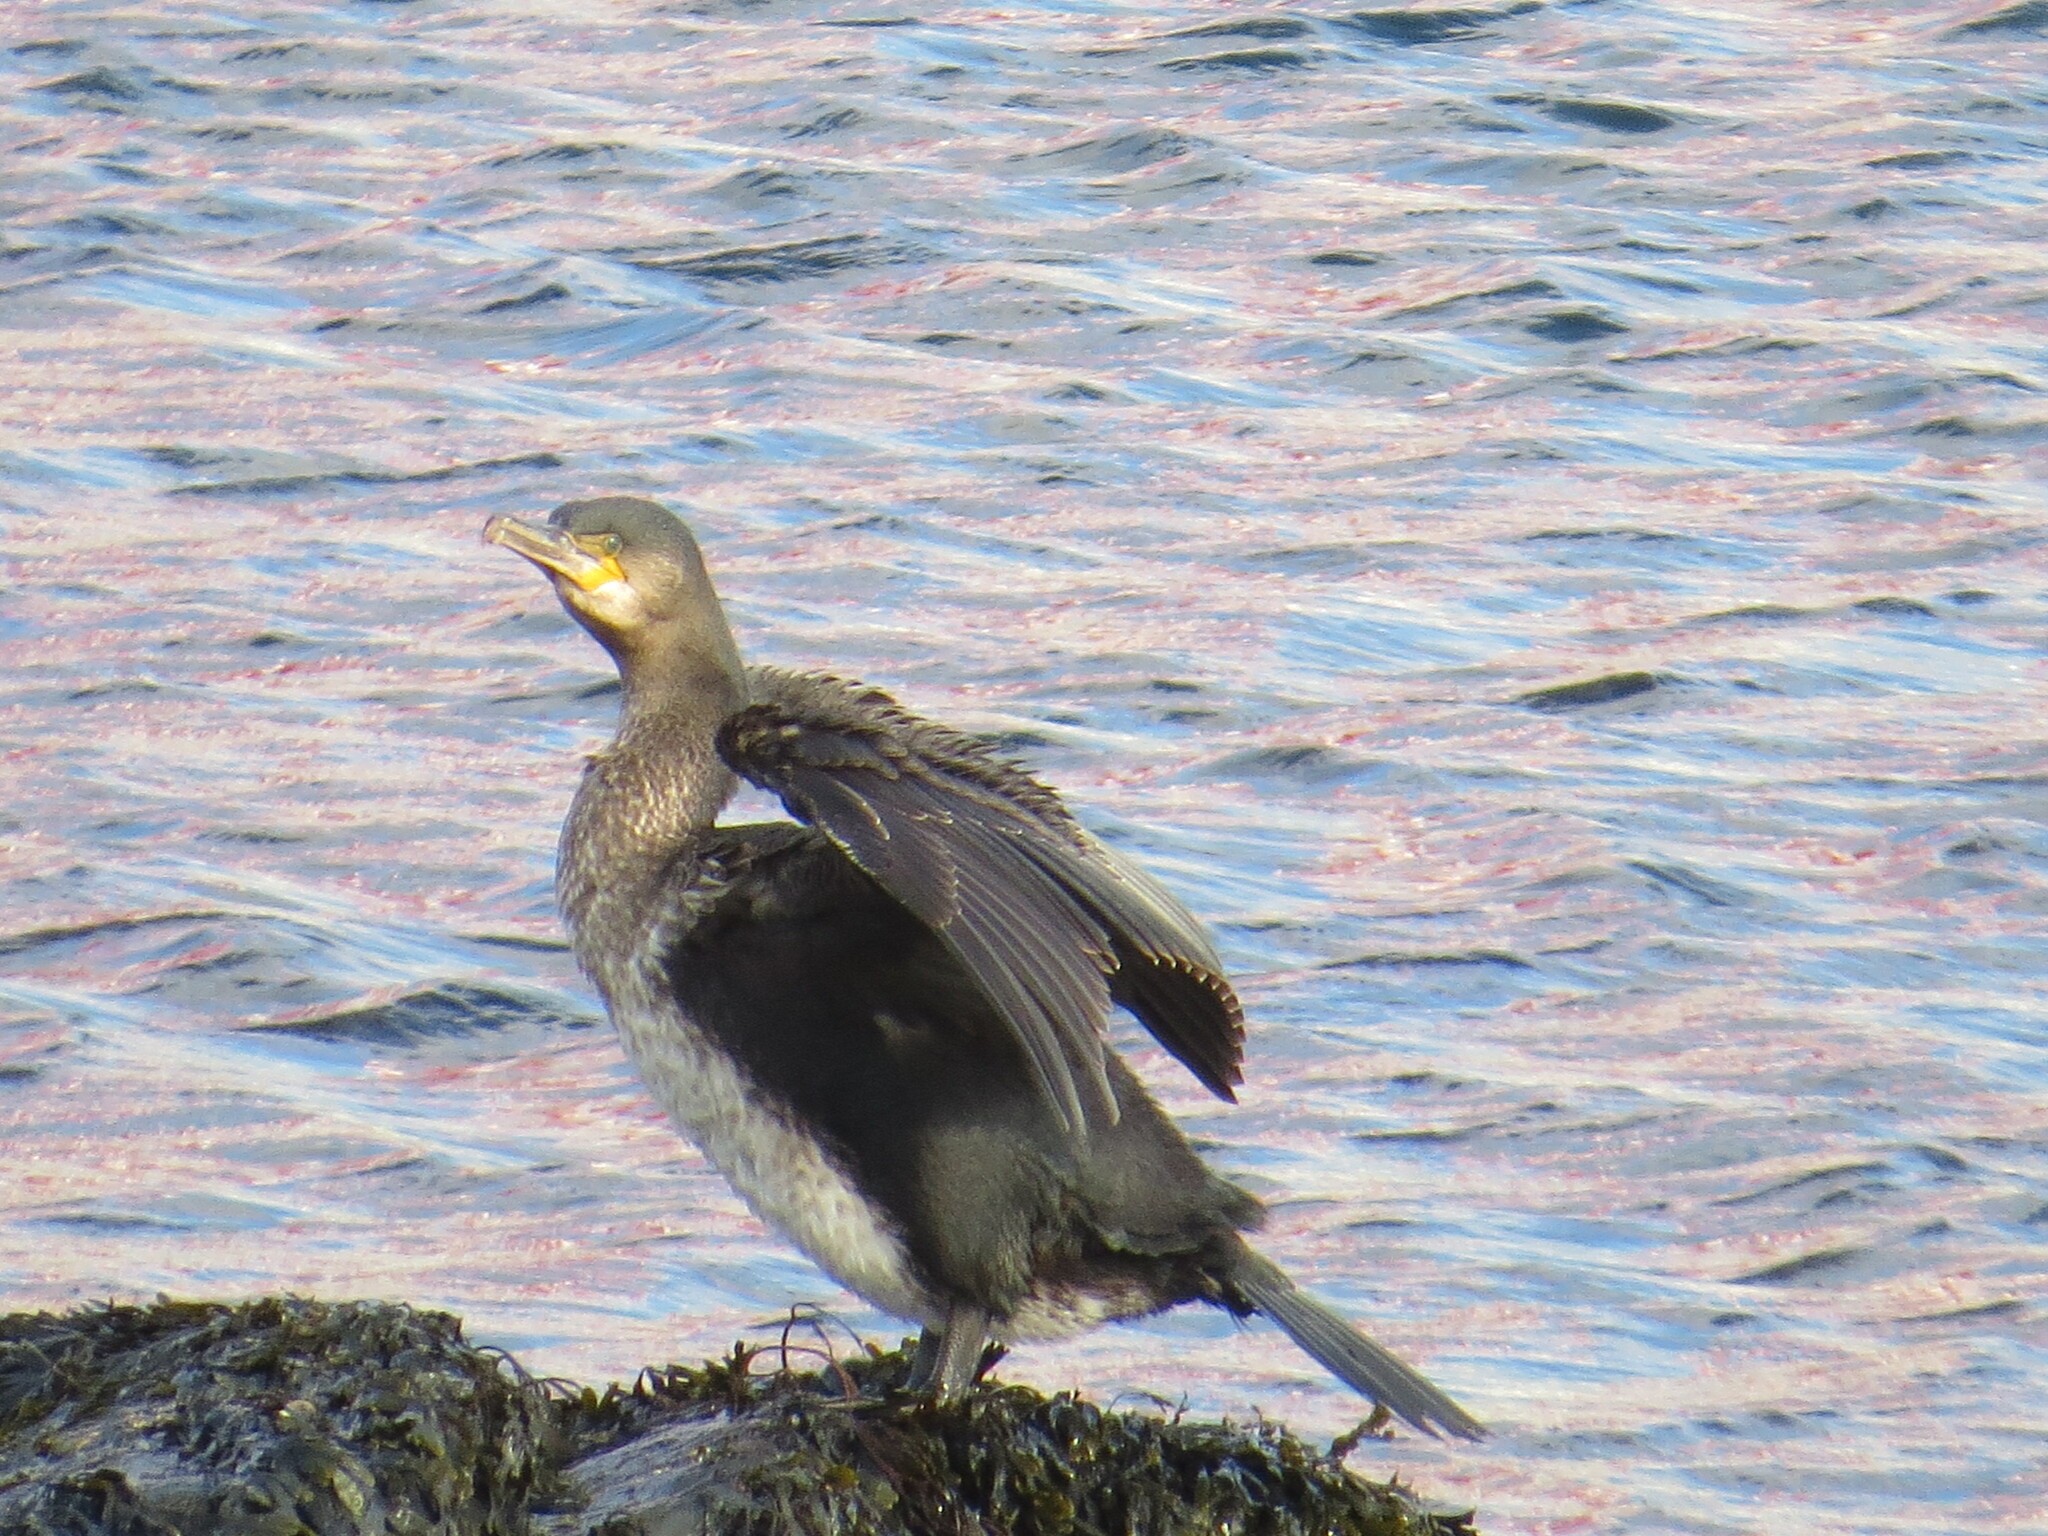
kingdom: Animalia
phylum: Chordata
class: Aves
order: Suliformes
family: Phalacrocoracidae
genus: Phalacrocorax
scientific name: Phalacrocorax carbo
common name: Great cormorant
